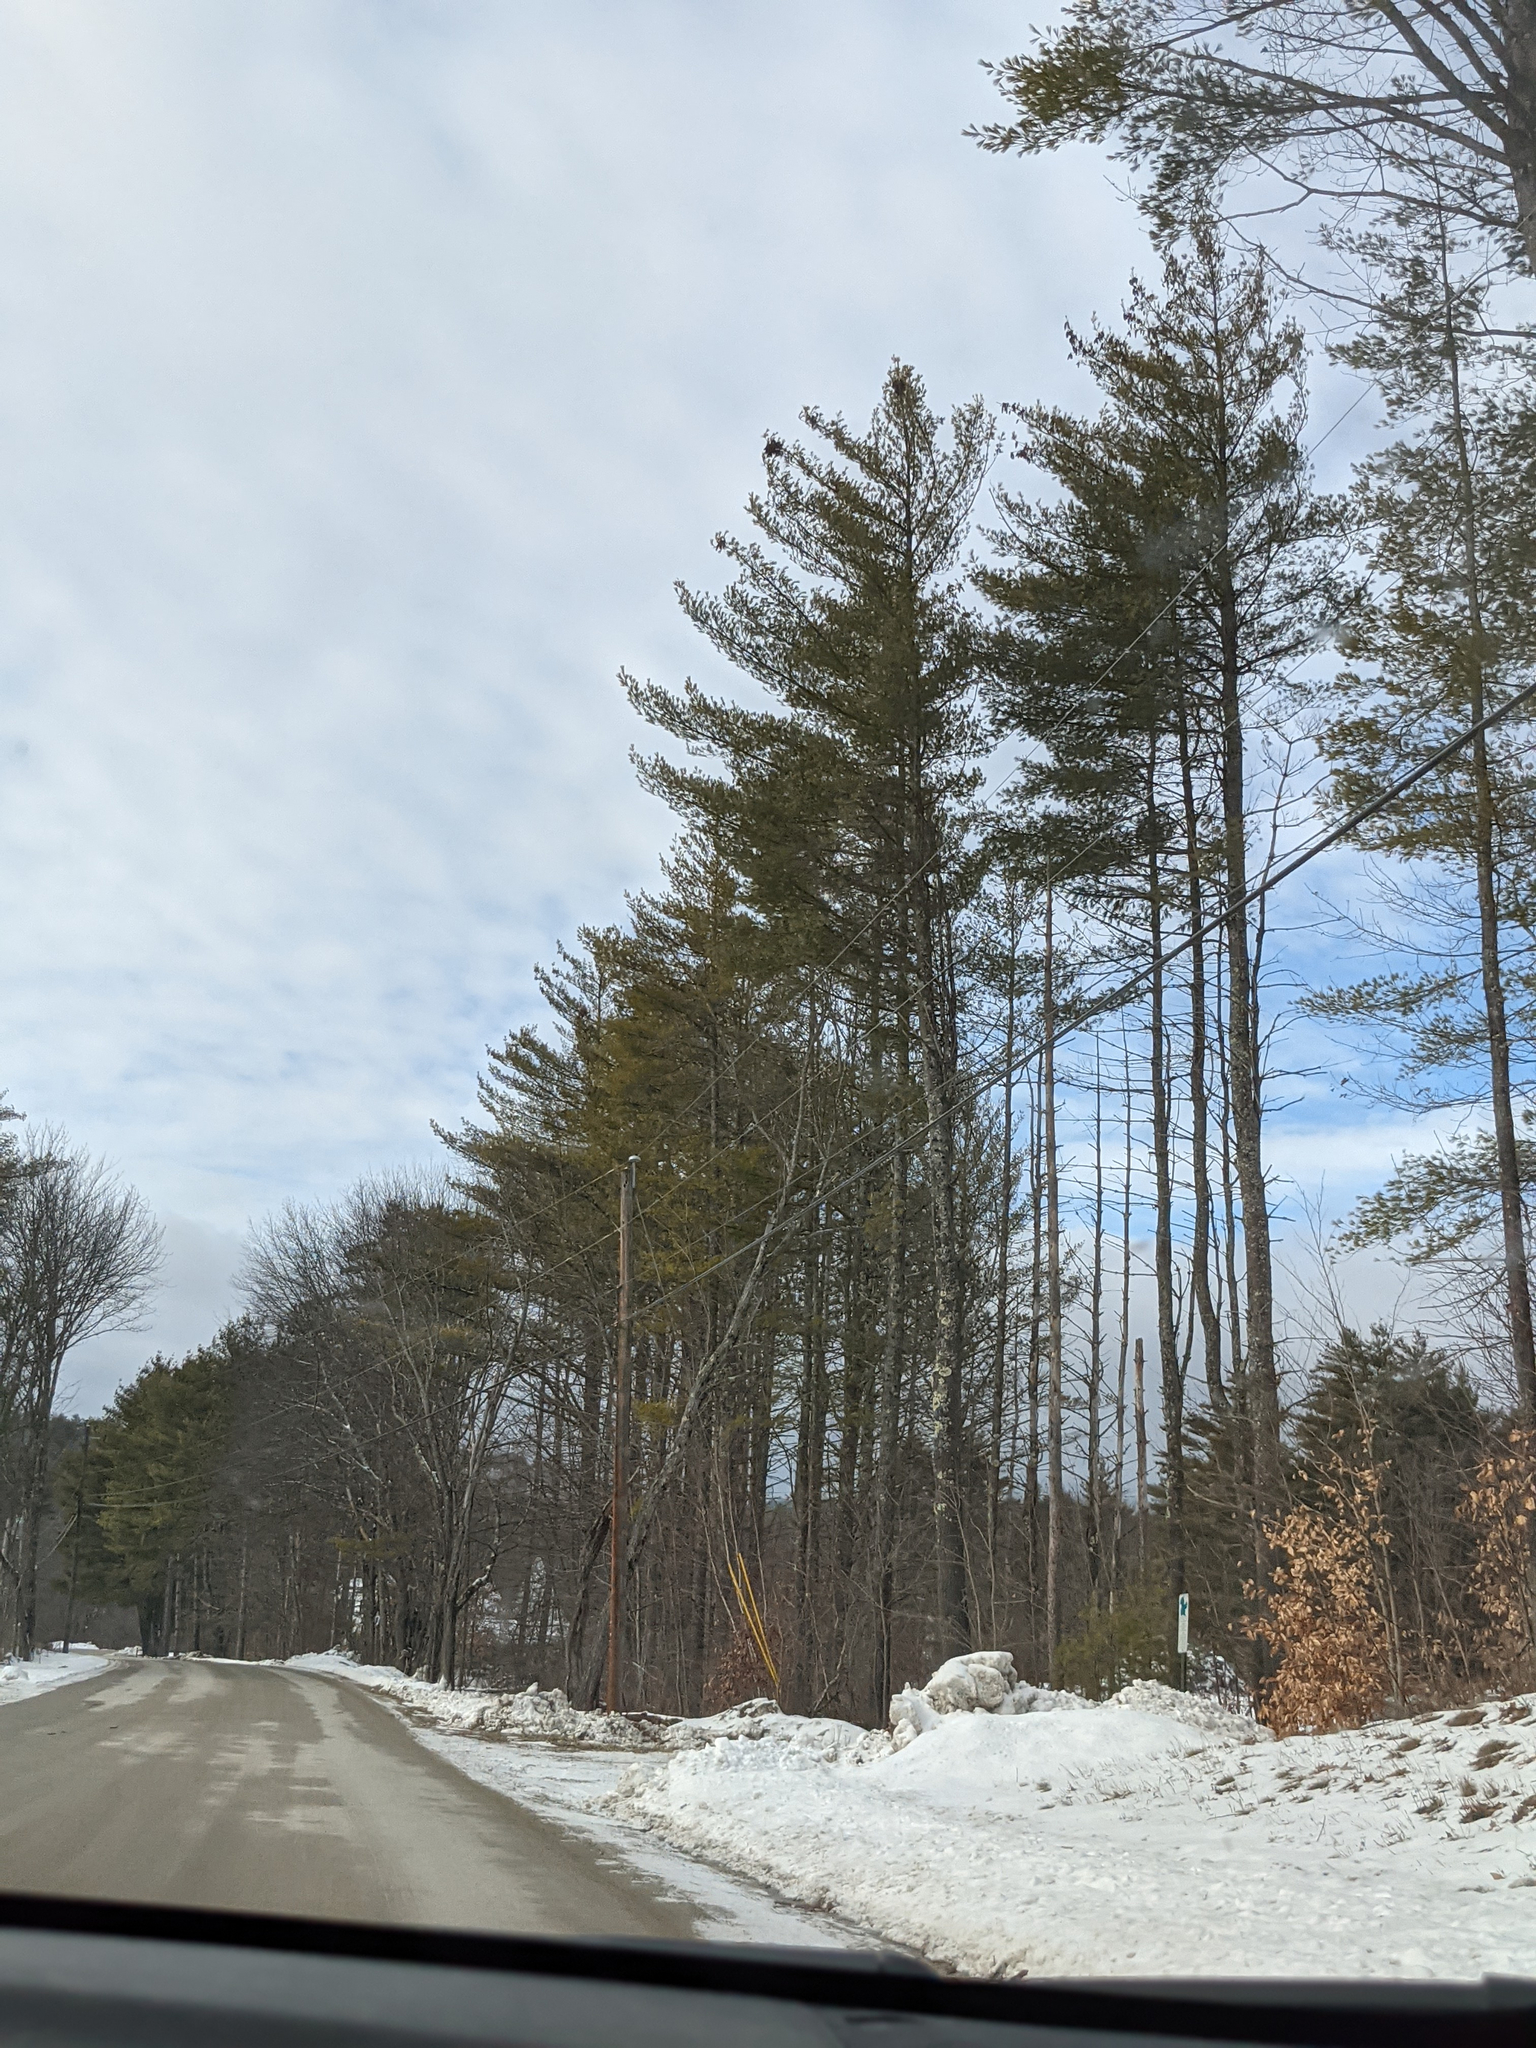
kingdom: Plantae
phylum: Tracheophyta
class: Pinopsida
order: Pinales
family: Pinaceae
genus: Pinus
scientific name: Pinus strobus
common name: Weymouth pine
